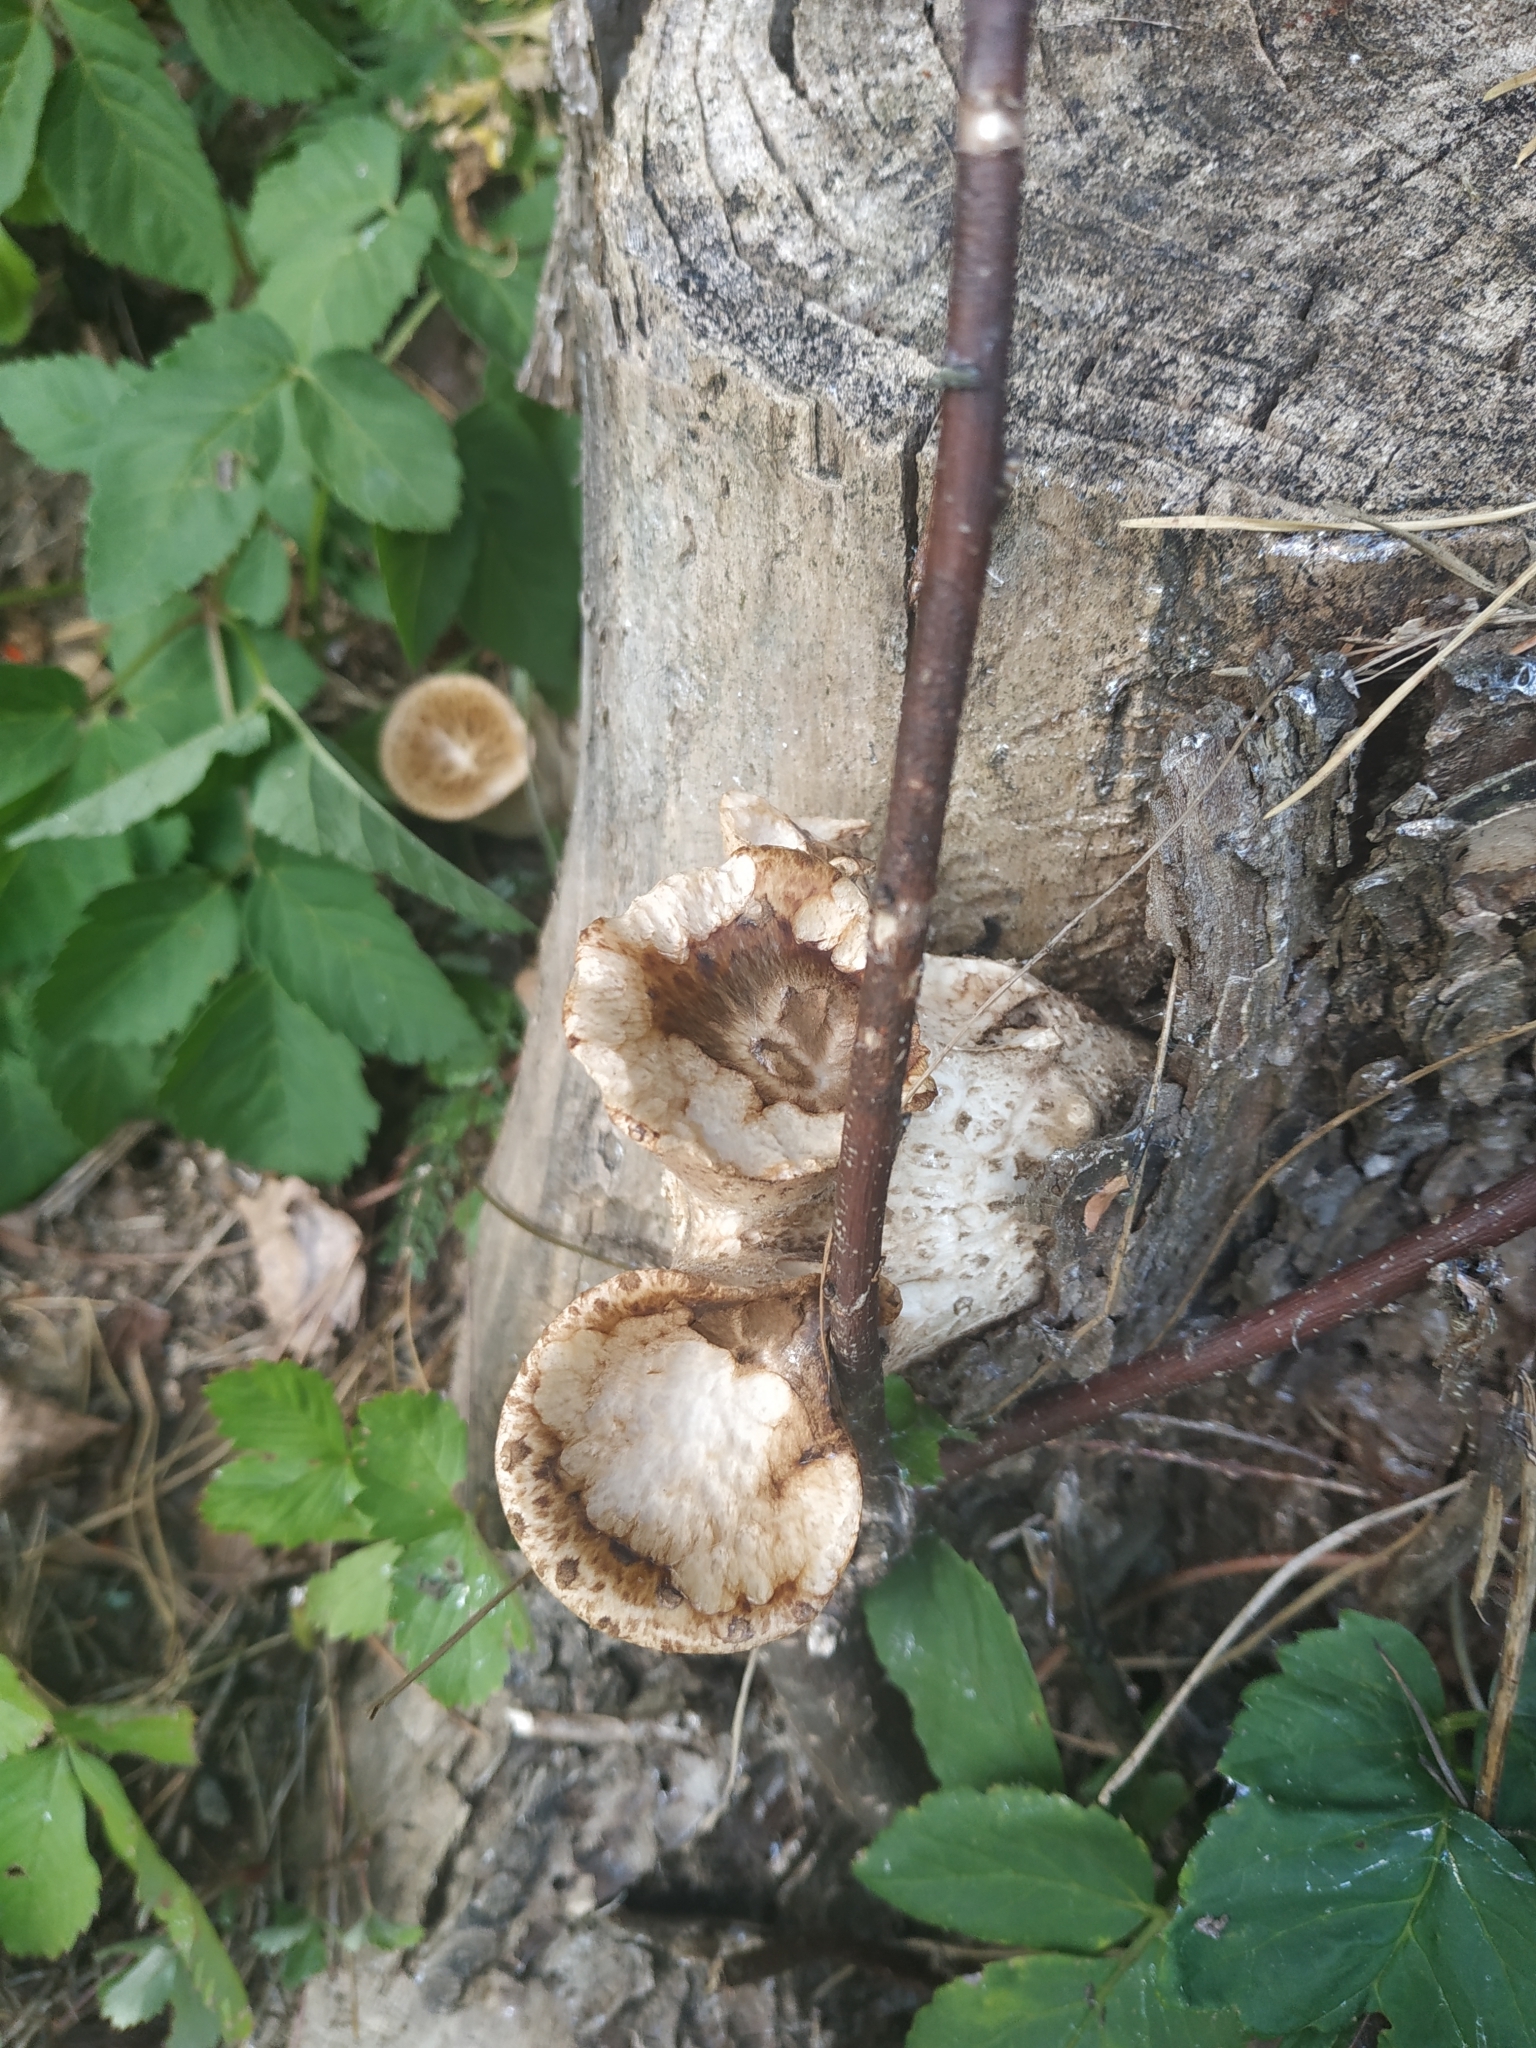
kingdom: Fungi
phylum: Basidiomycota
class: Agaricomycetes
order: Polyporales
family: Polyporaceae
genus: Cerioporus
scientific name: Cerioporus squamosus
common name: Dryad's saddle
